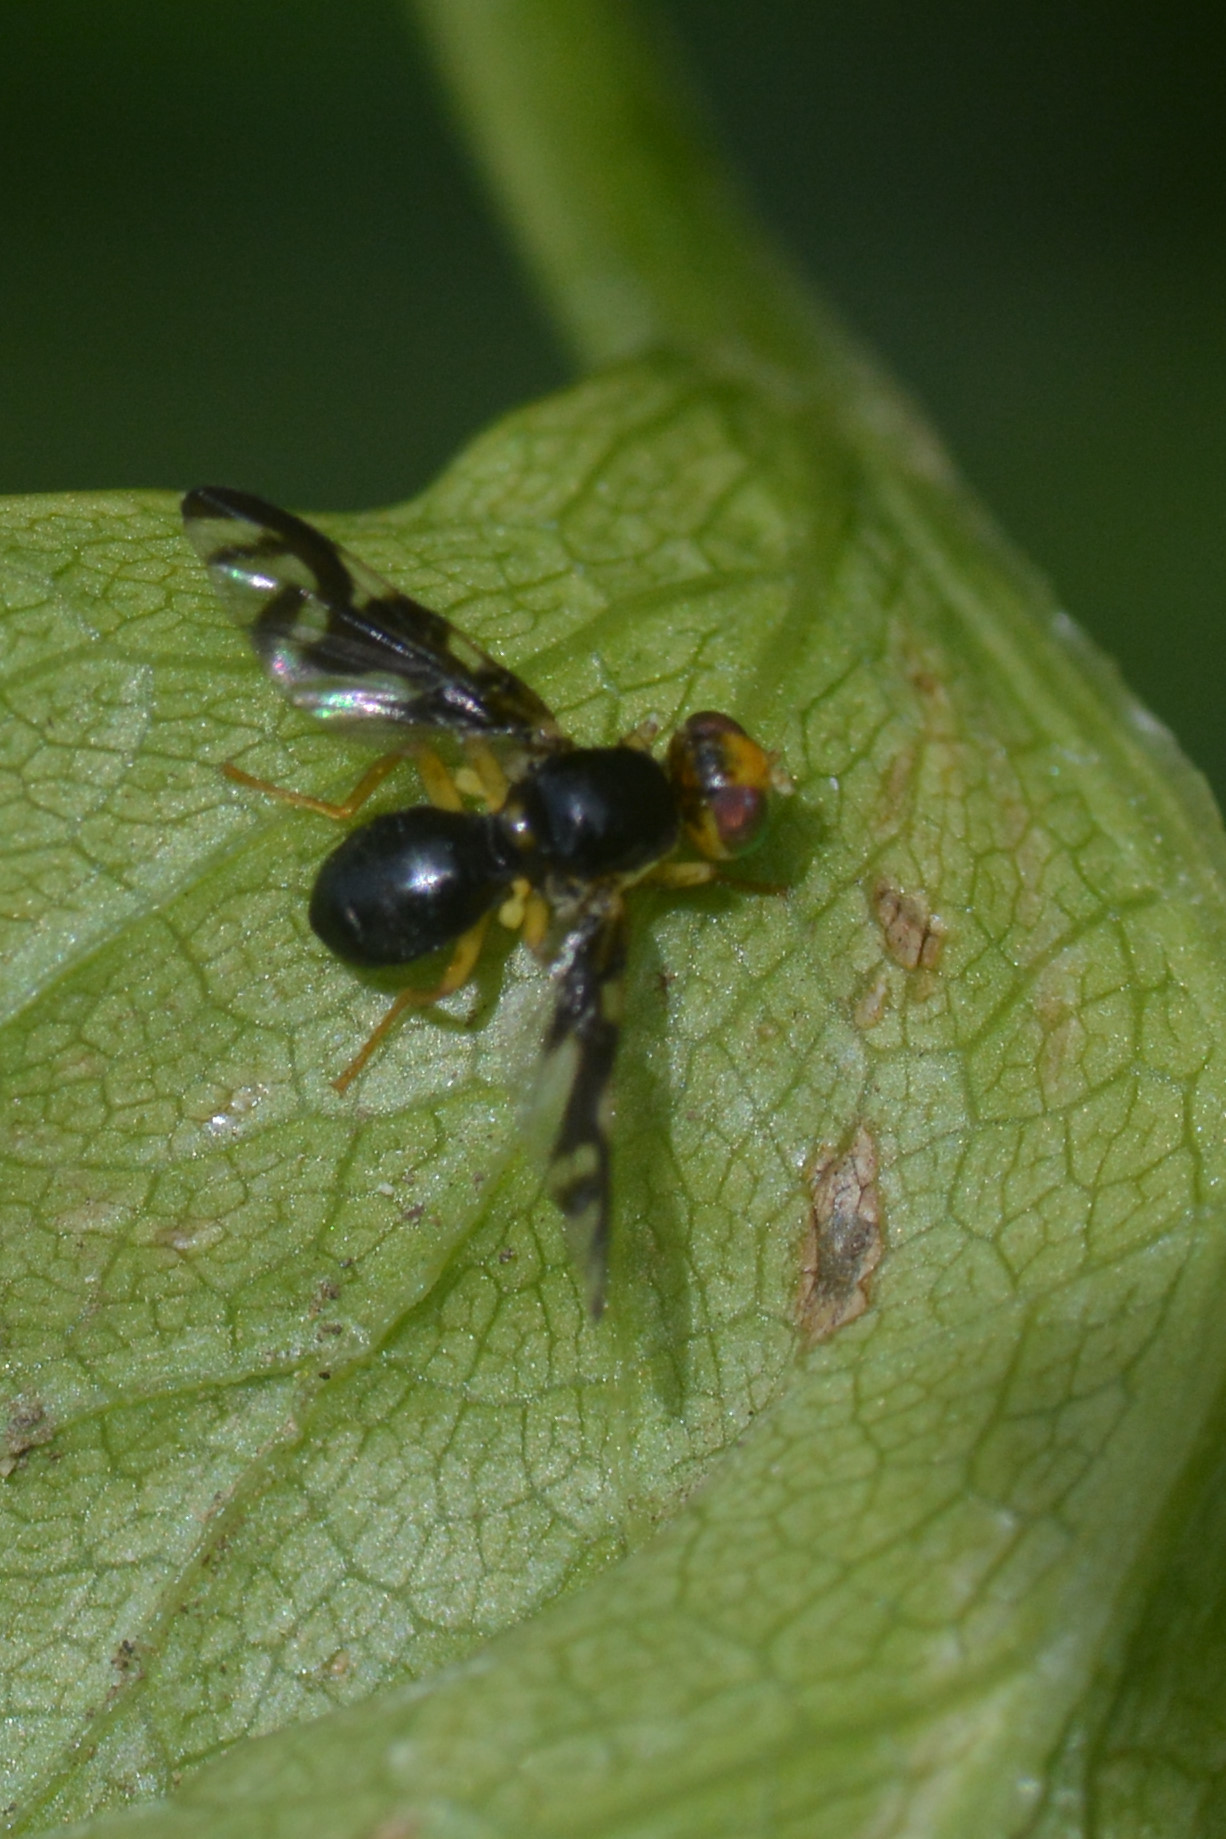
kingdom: Animalia
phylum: Arthropoda
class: Insecta
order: Diptera
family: Tephritidae
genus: Euleia
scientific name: Euleia heraclei
